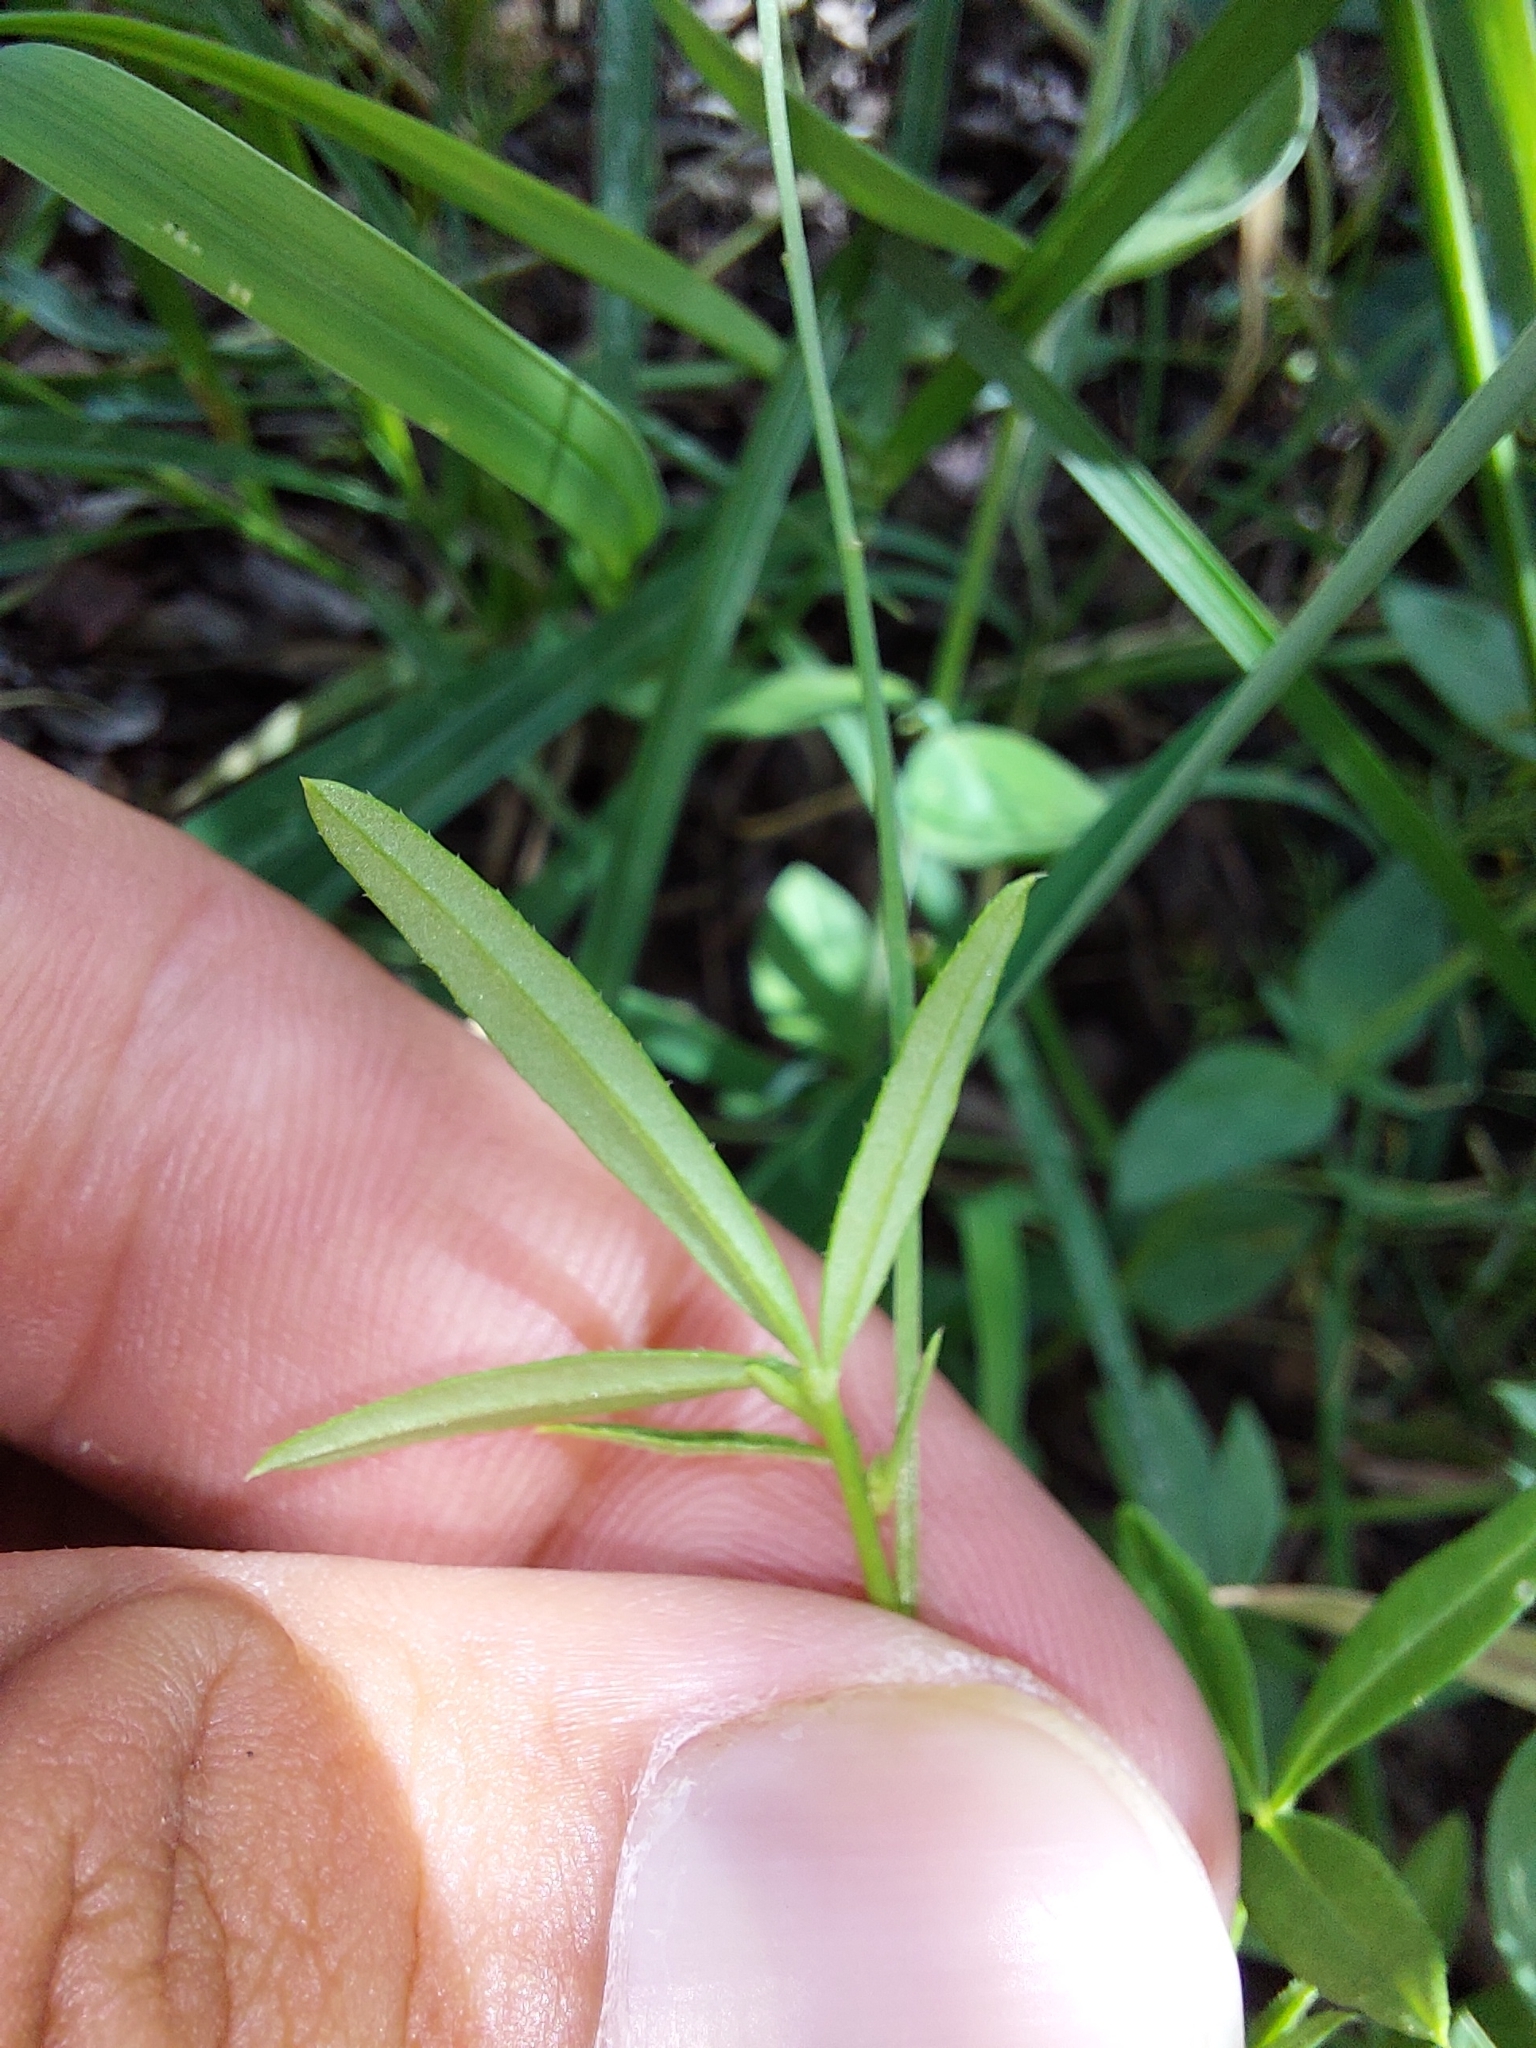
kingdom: Plantae
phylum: Tracheophyta
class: Magnoliopsida
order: Brassicales
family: Cleomaceae
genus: Cleome
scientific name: Cleome macrophylla
